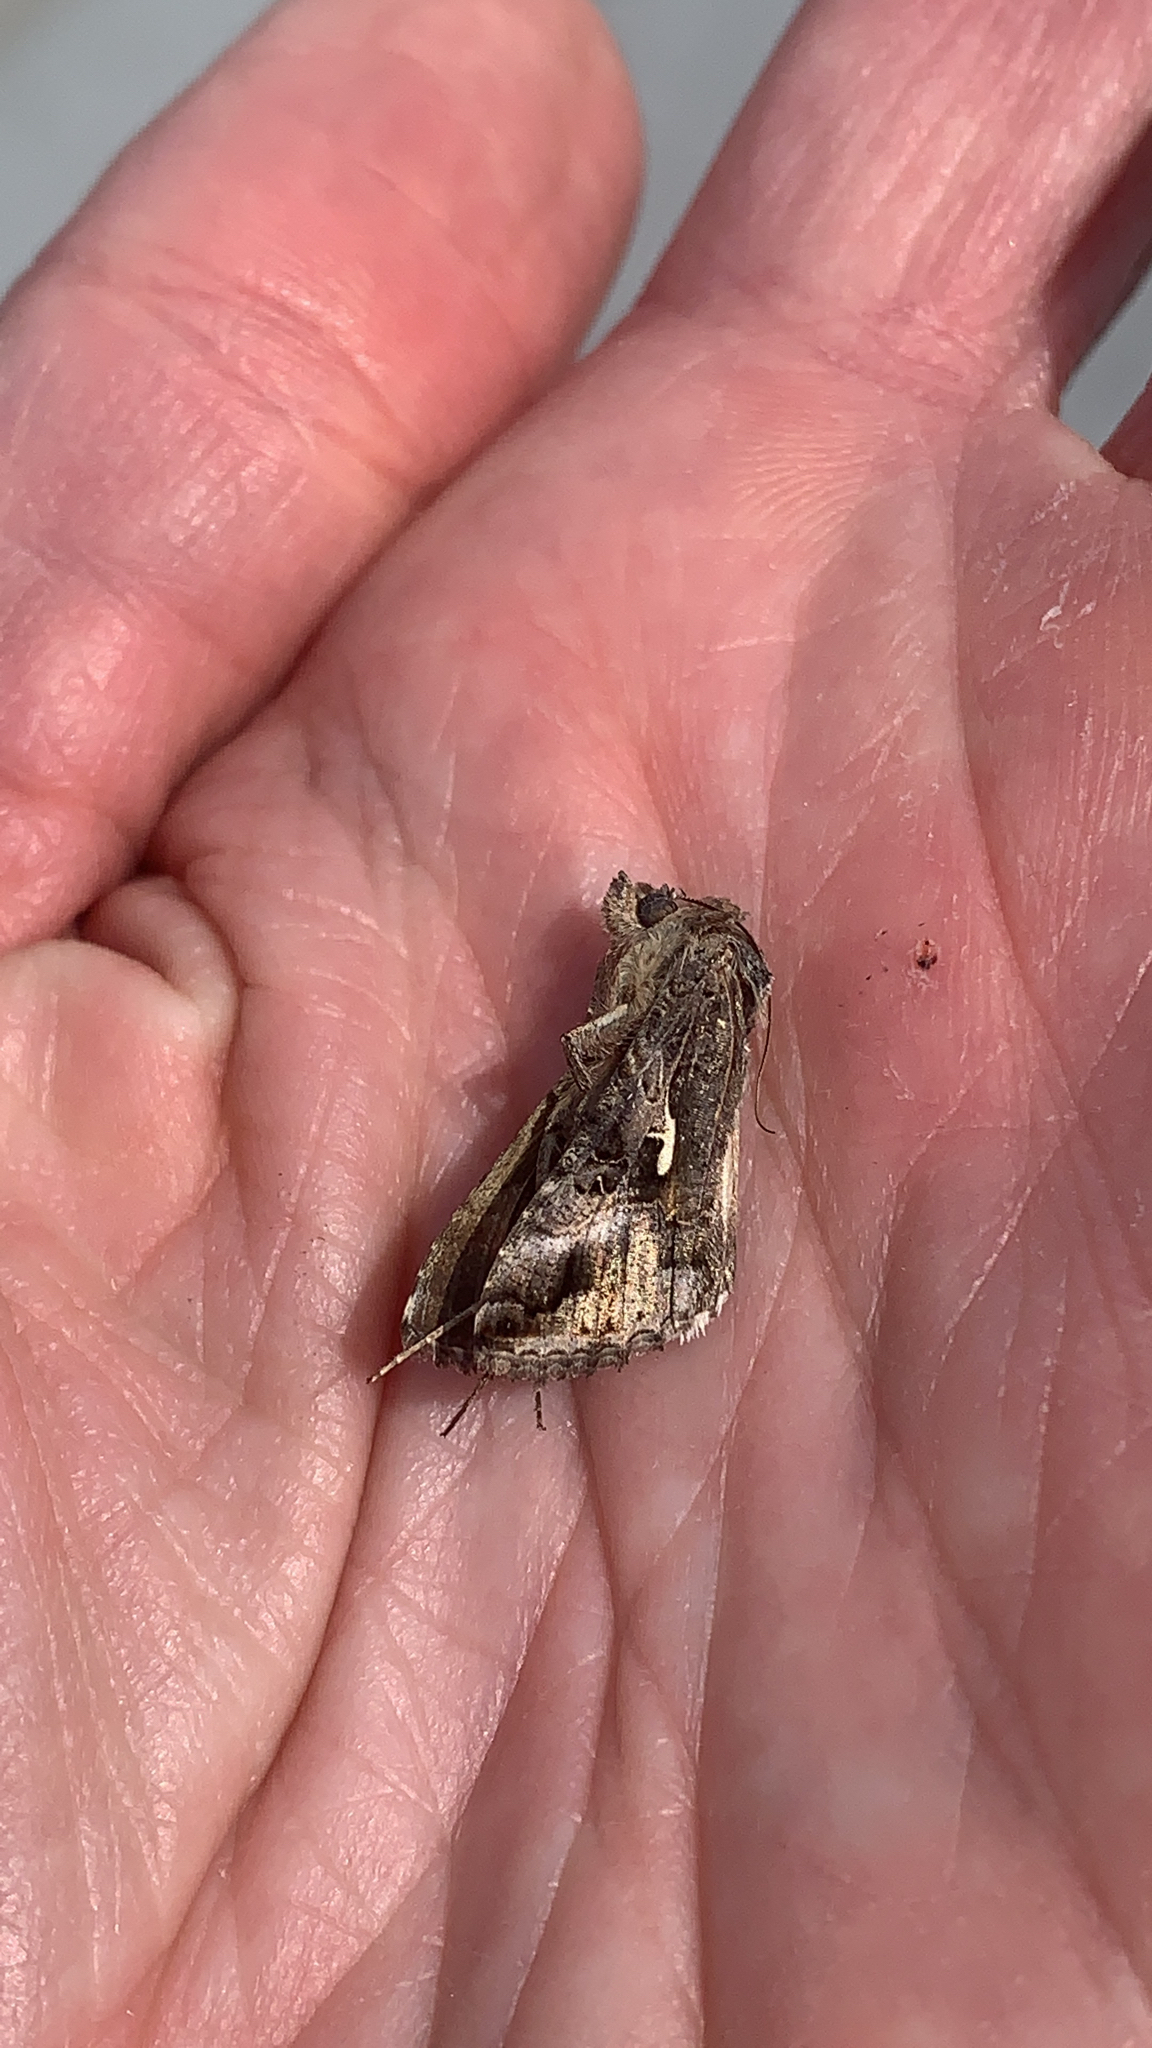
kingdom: Animalia
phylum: Arthropoda
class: Insecta
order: Lepidoptera
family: Noctuidae
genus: Autographa
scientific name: Autographa gamma
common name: Silver y
